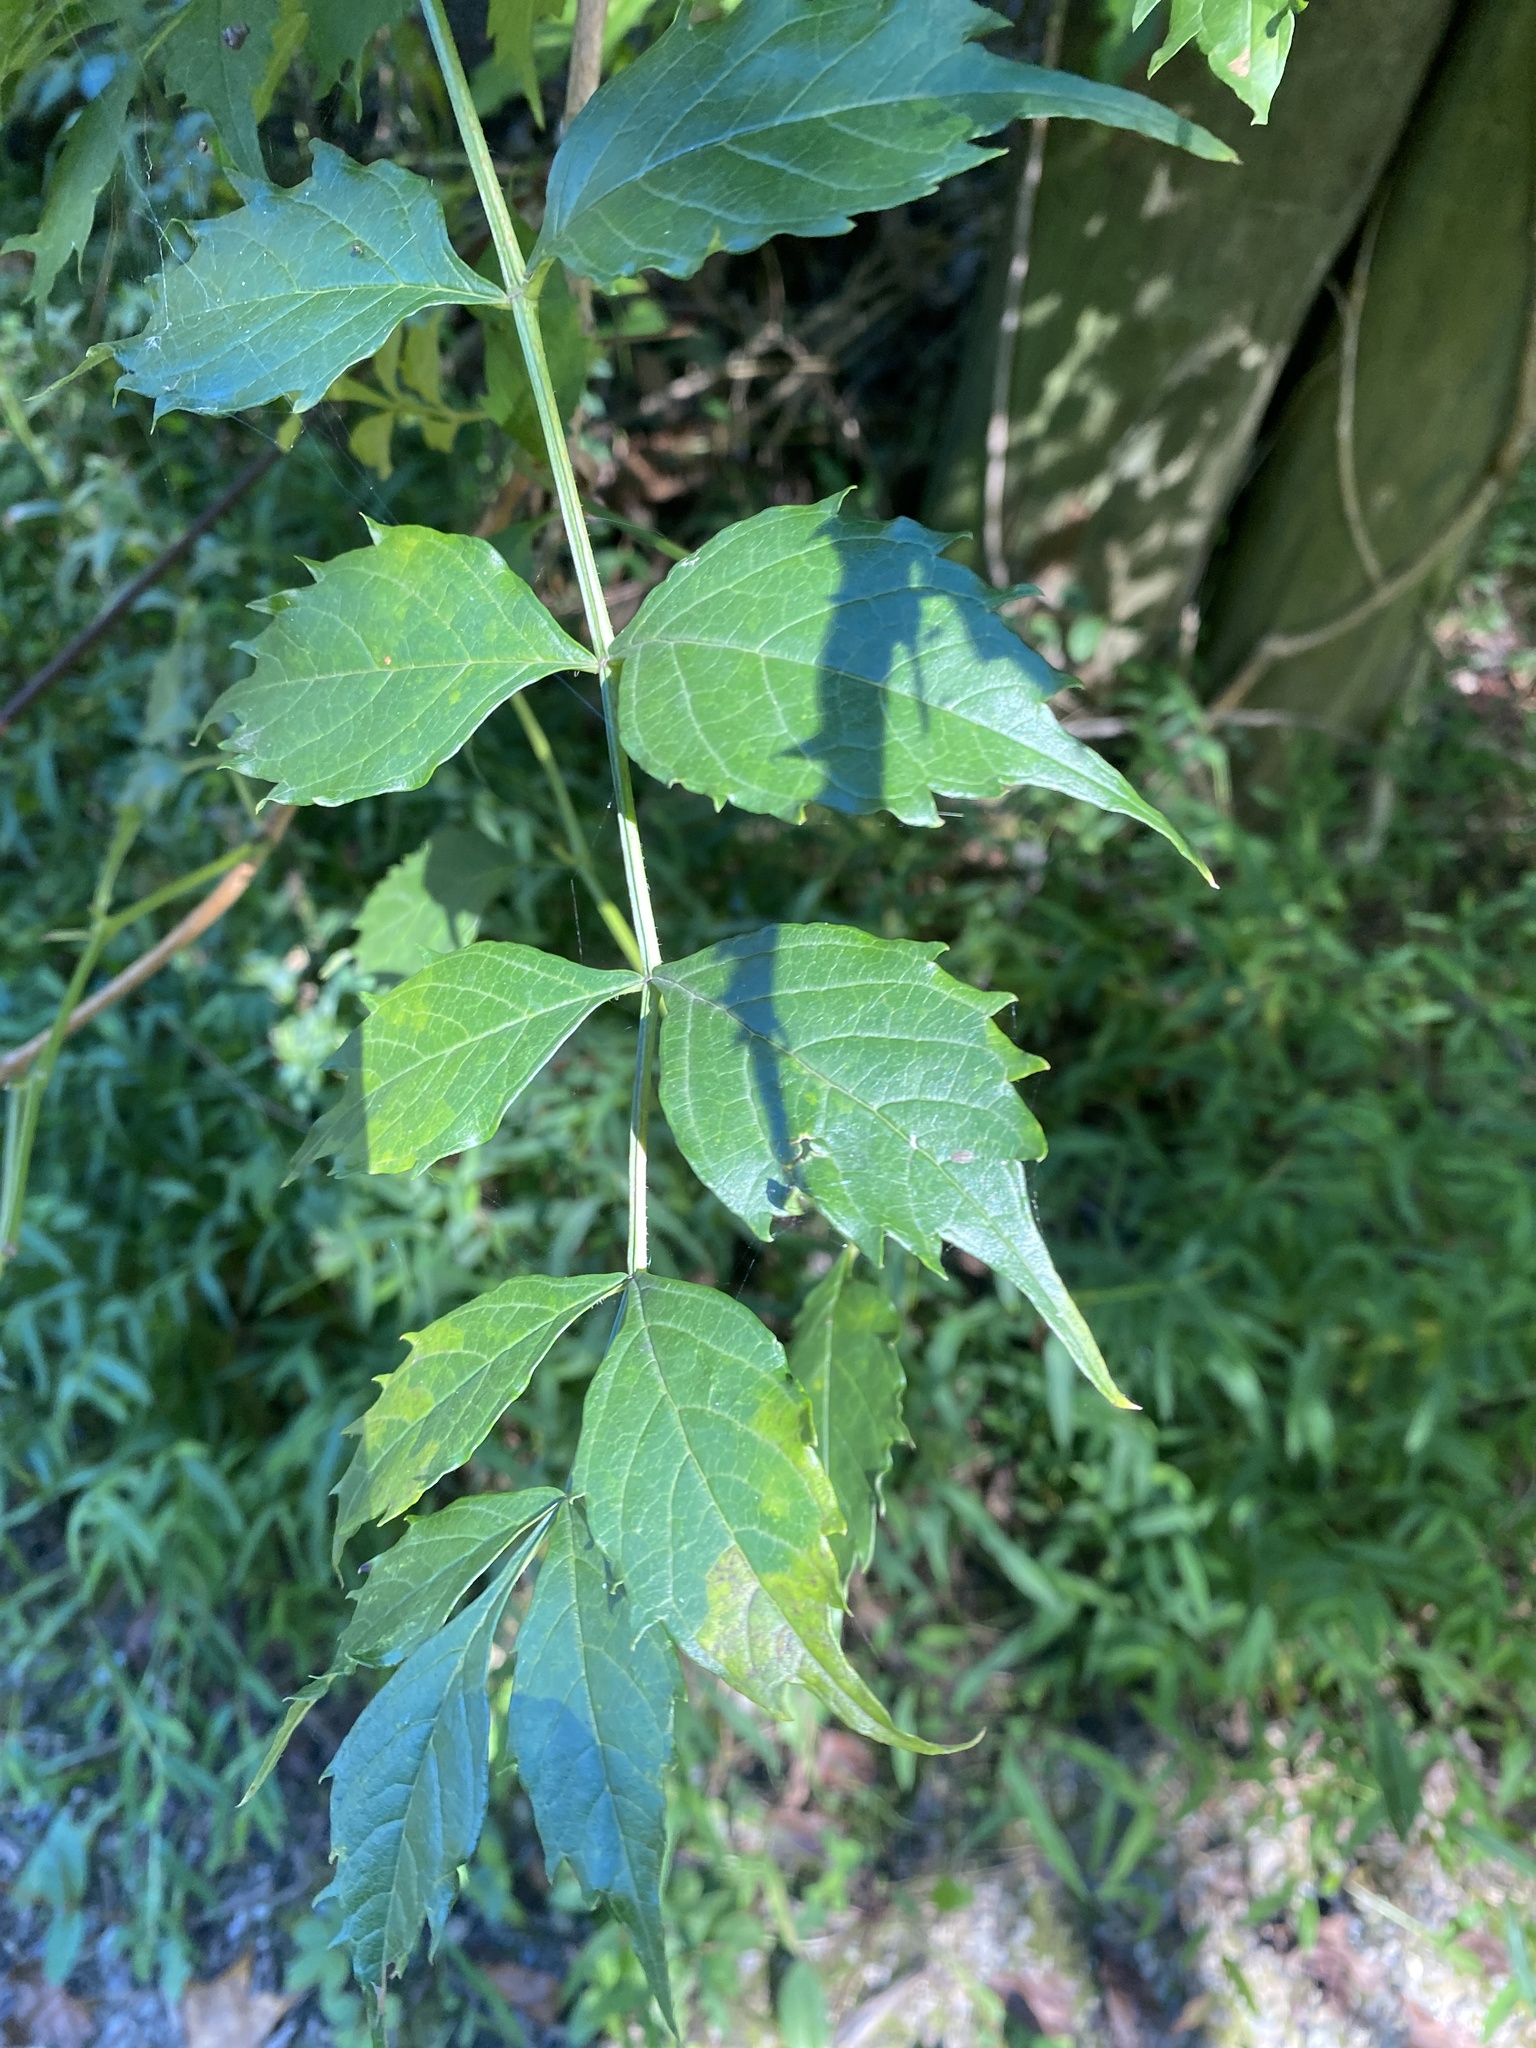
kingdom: Plantae
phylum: Tracheophyta
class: Magnoliopsida
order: Lamiales
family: Bignoniaceae
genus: Campsis
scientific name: Campsis radicans
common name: Trumpet-creeper
